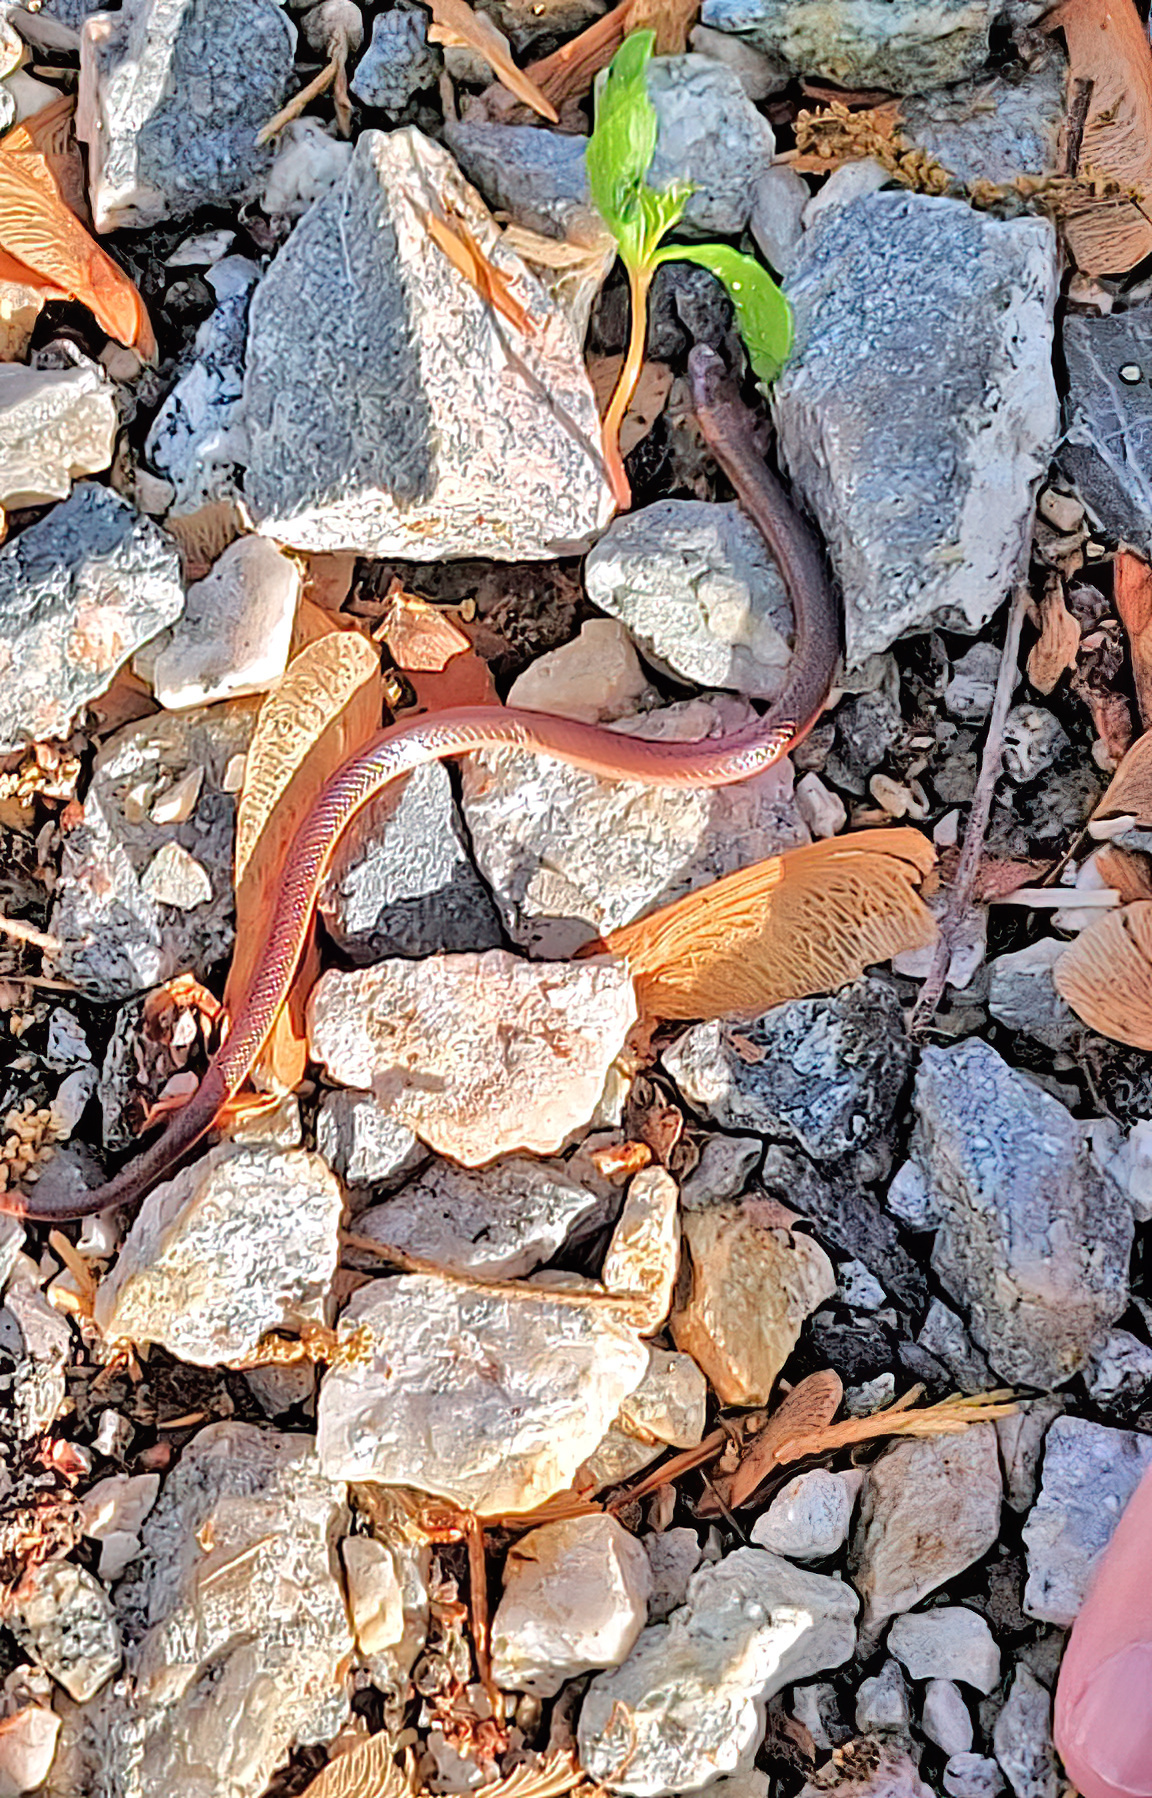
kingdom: Animalia
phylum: Chordata
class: Squamata
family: Colubridae
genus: Carphophis
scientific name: Carphophis amoenus
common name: Eastern worm snake
